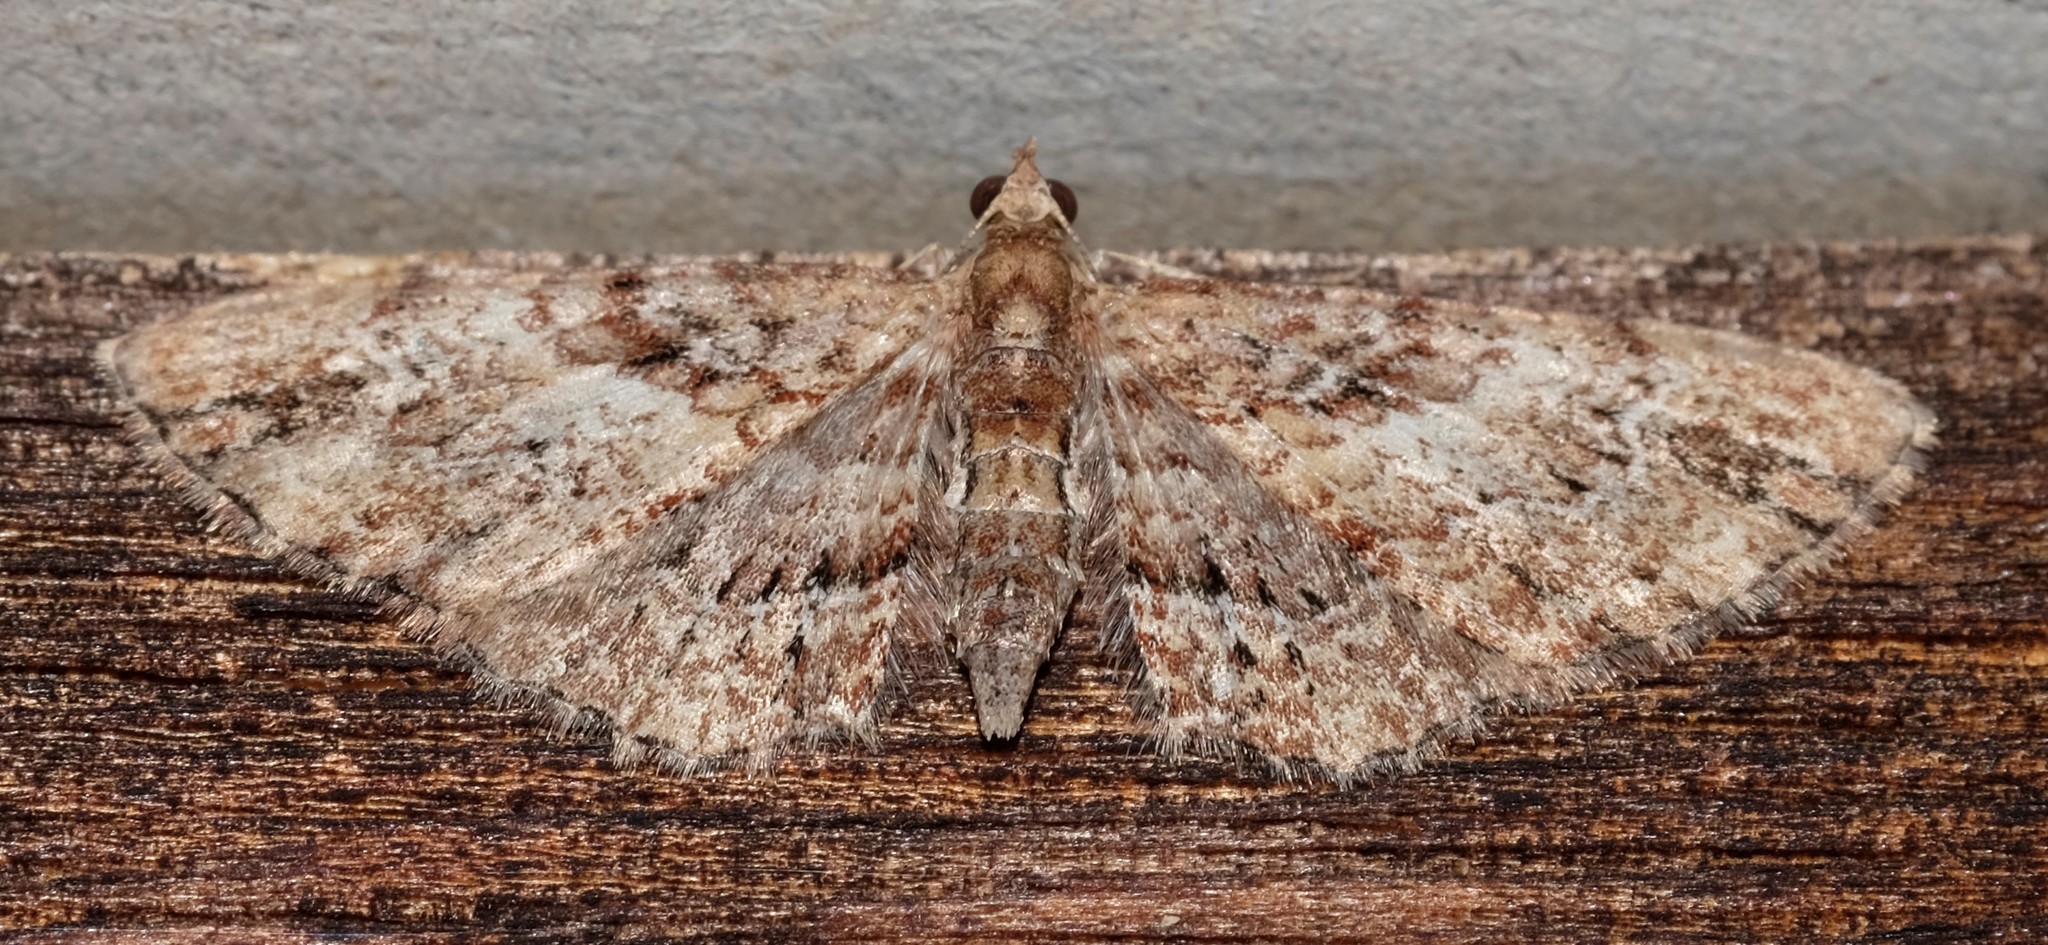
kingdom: Animalia
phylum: Arthropoda
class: Insecta
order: Lepidoptera
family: Geometridae
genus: Chloroclystis
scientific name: Chloroclystis approximata
